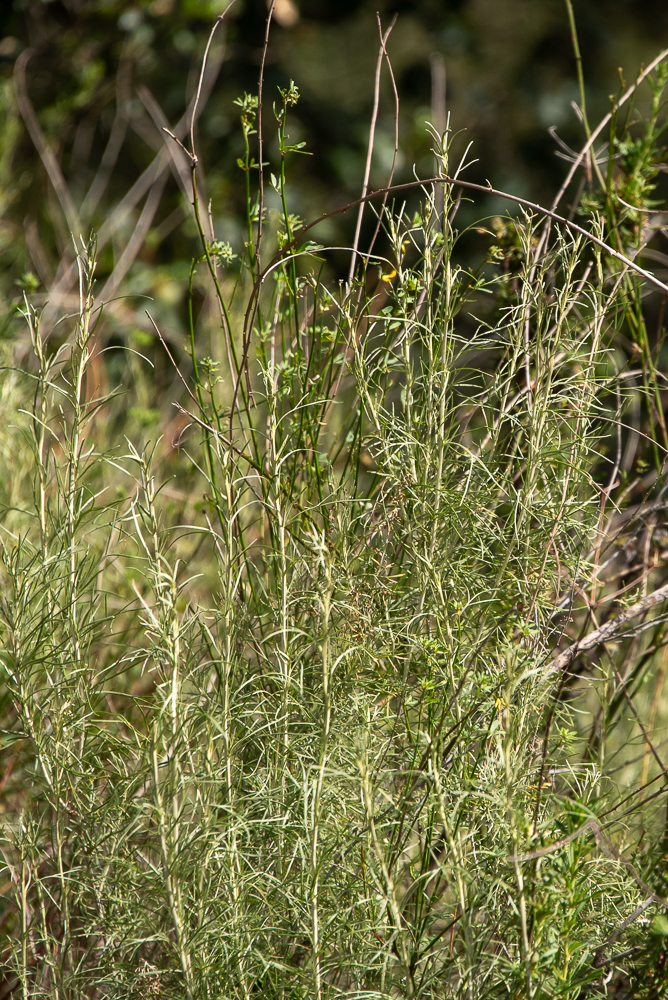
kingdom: Plantae
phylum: Tracheophyta
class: Magnoliopsida
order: Asterales
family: Asteraceae
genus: Artemisia
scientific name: Artemisia californica
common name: California sagebrush
